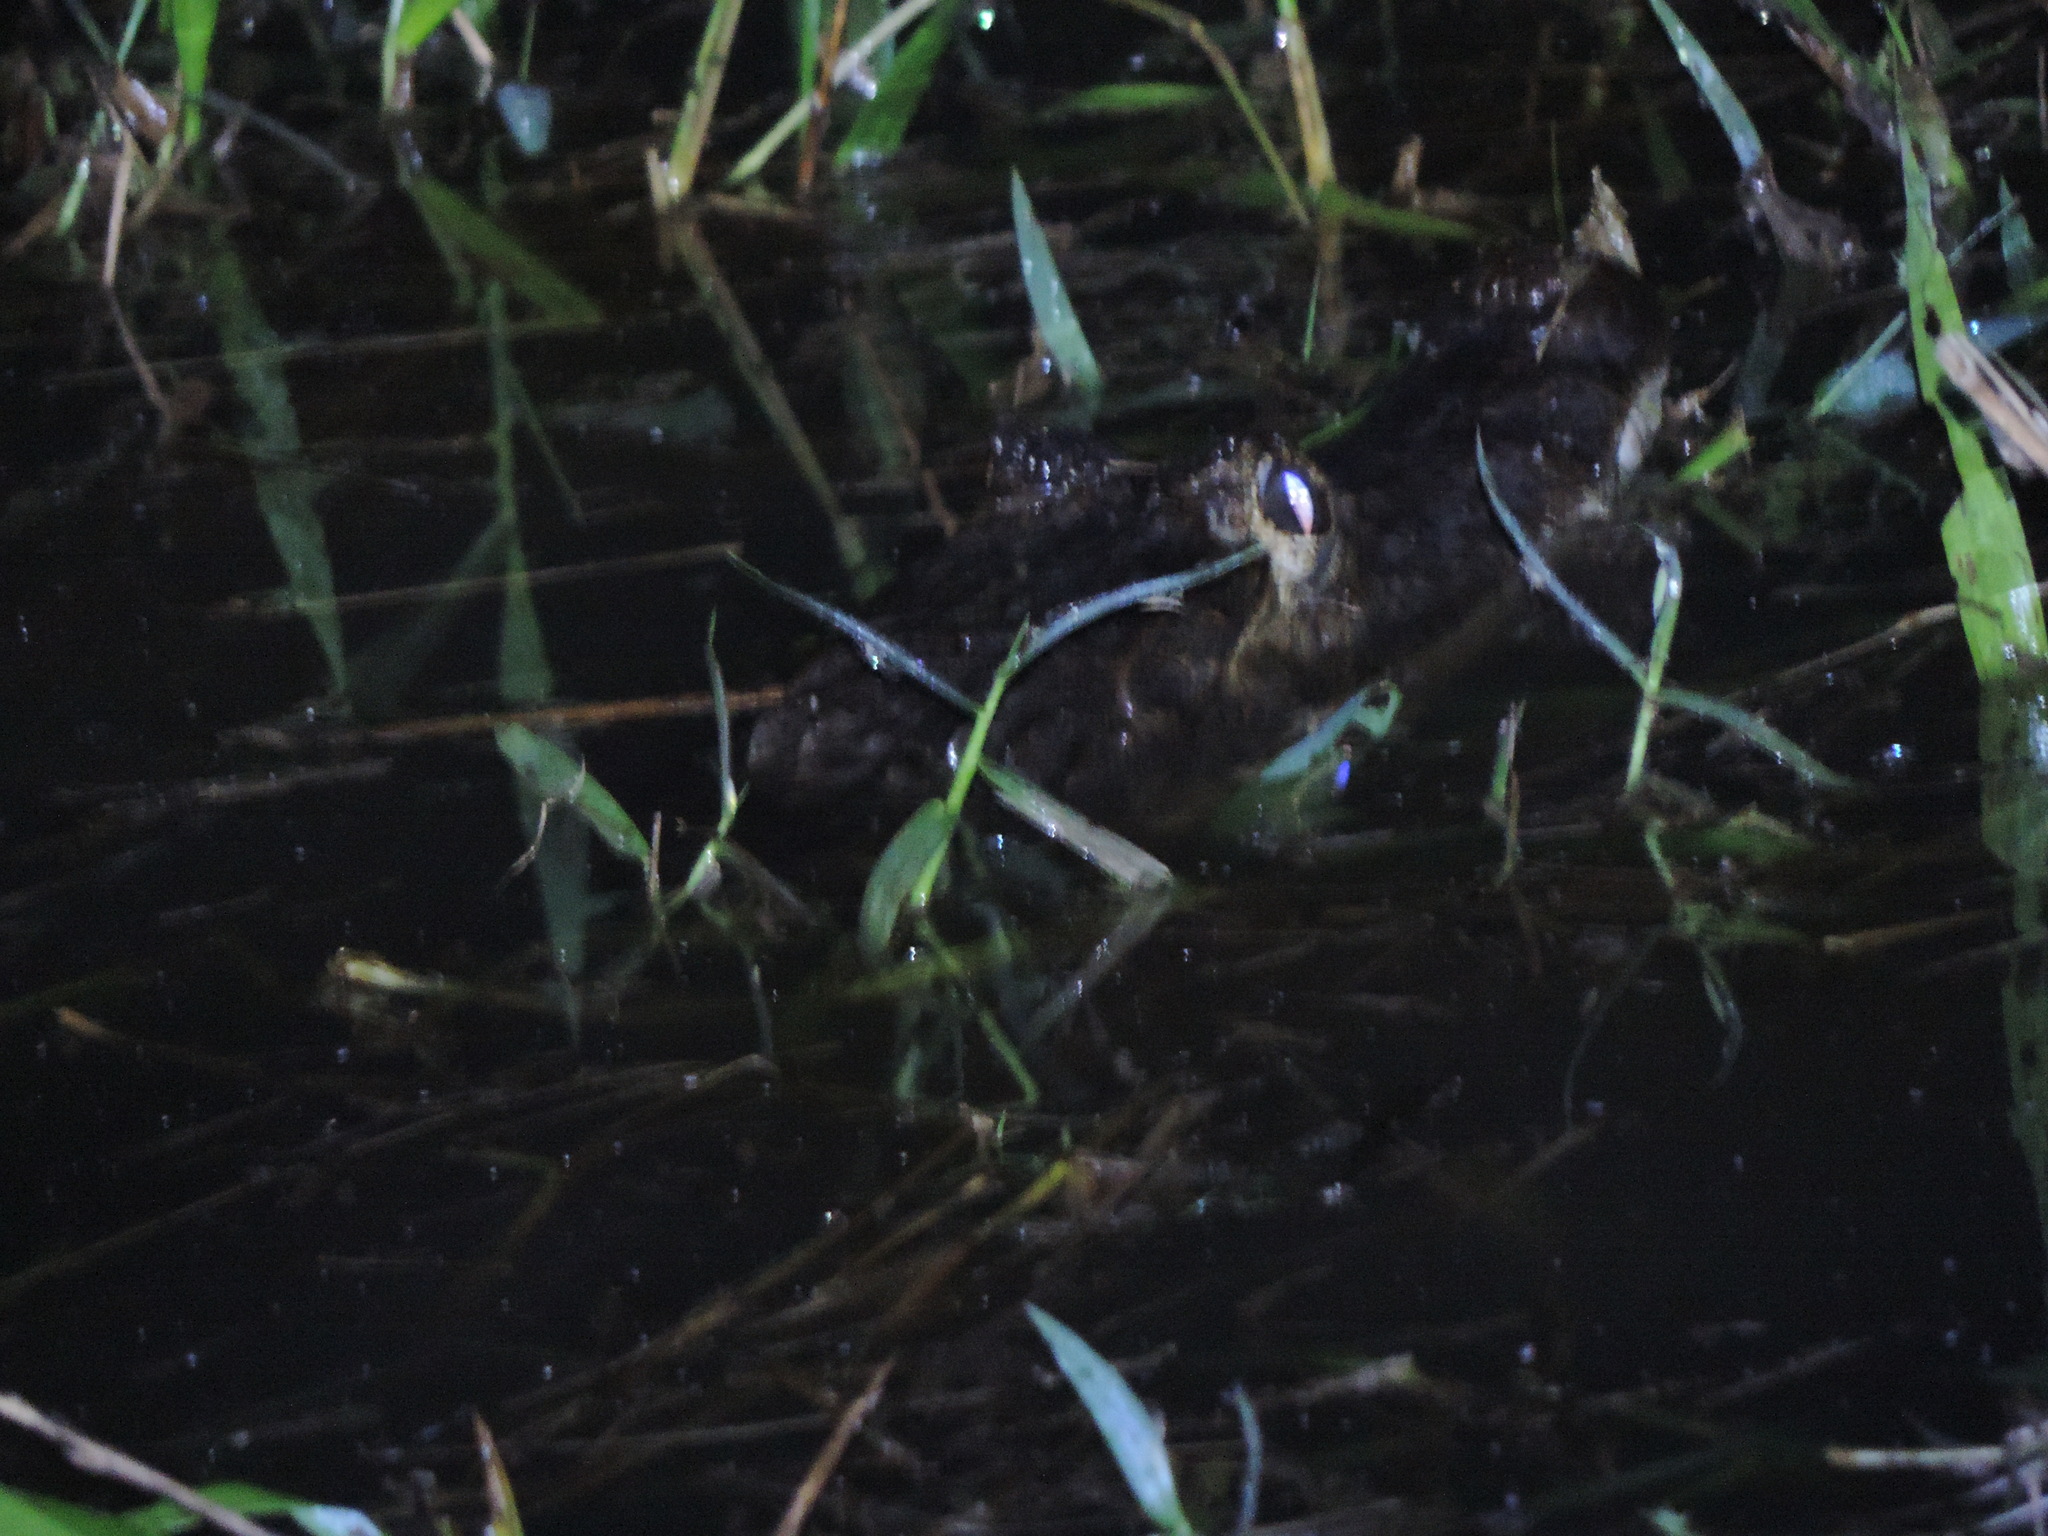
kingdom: Animalia
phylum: Chordata
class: Crocodylia
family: Alligatoridae
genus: Caiman
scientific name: Caiman crocodilus
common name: Common caiman
